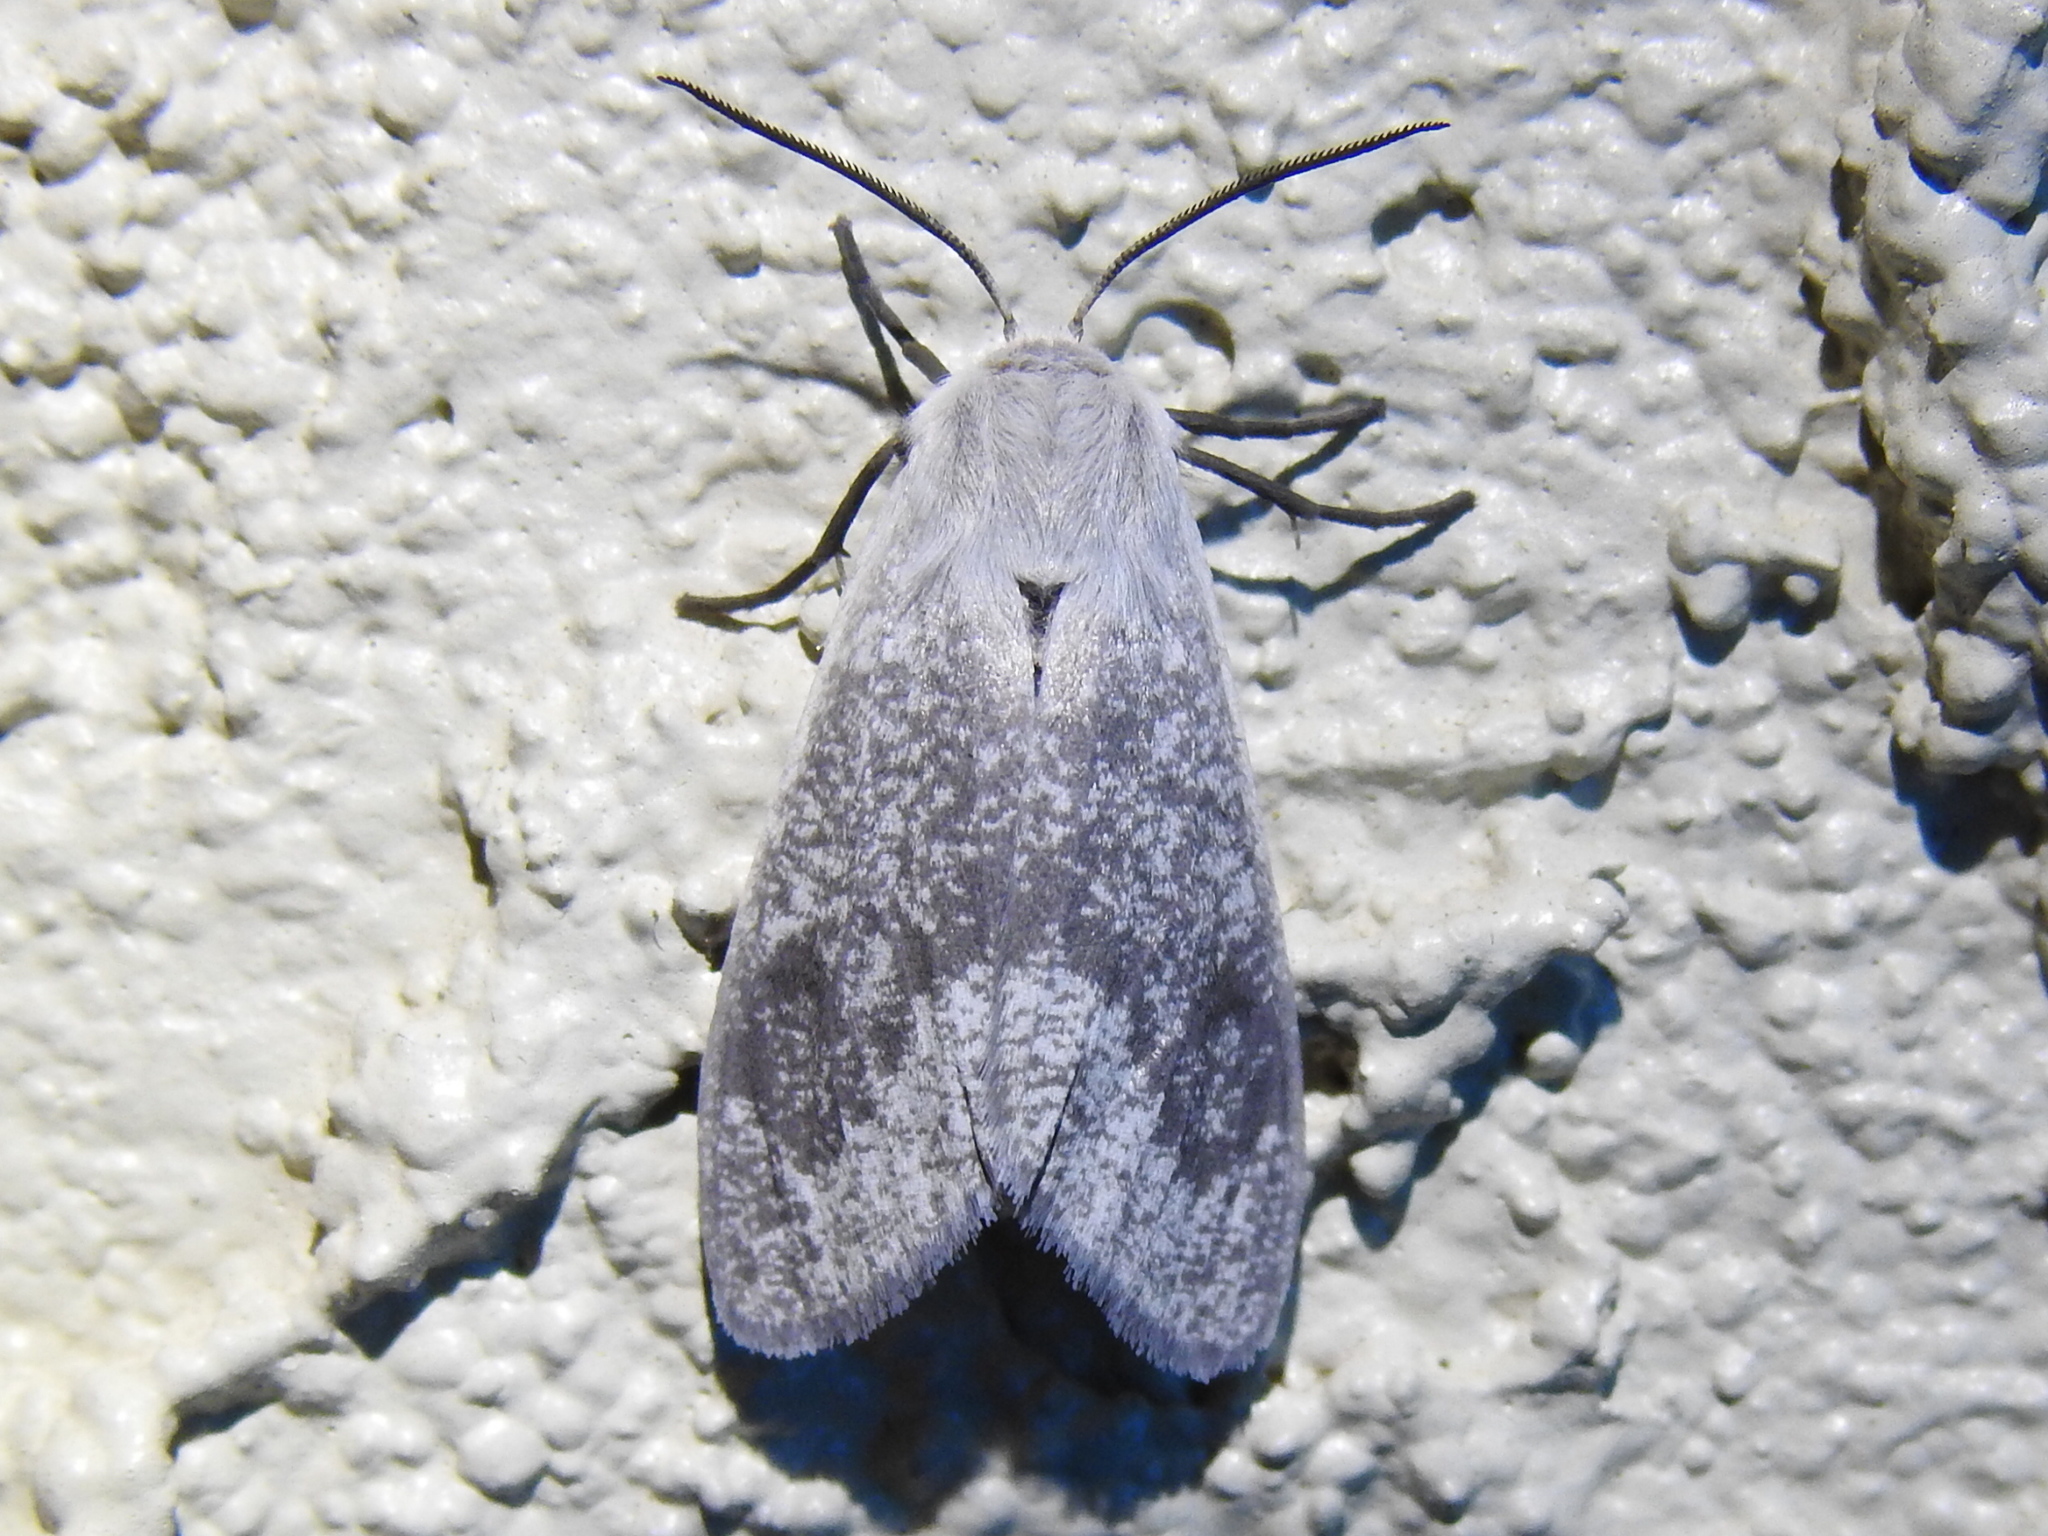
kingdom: Animalia
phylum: Arthropoda
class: Insecta
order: Lepidoptera
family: Erebidae
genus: Euchaetes
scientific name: Euchaetes bolteri
